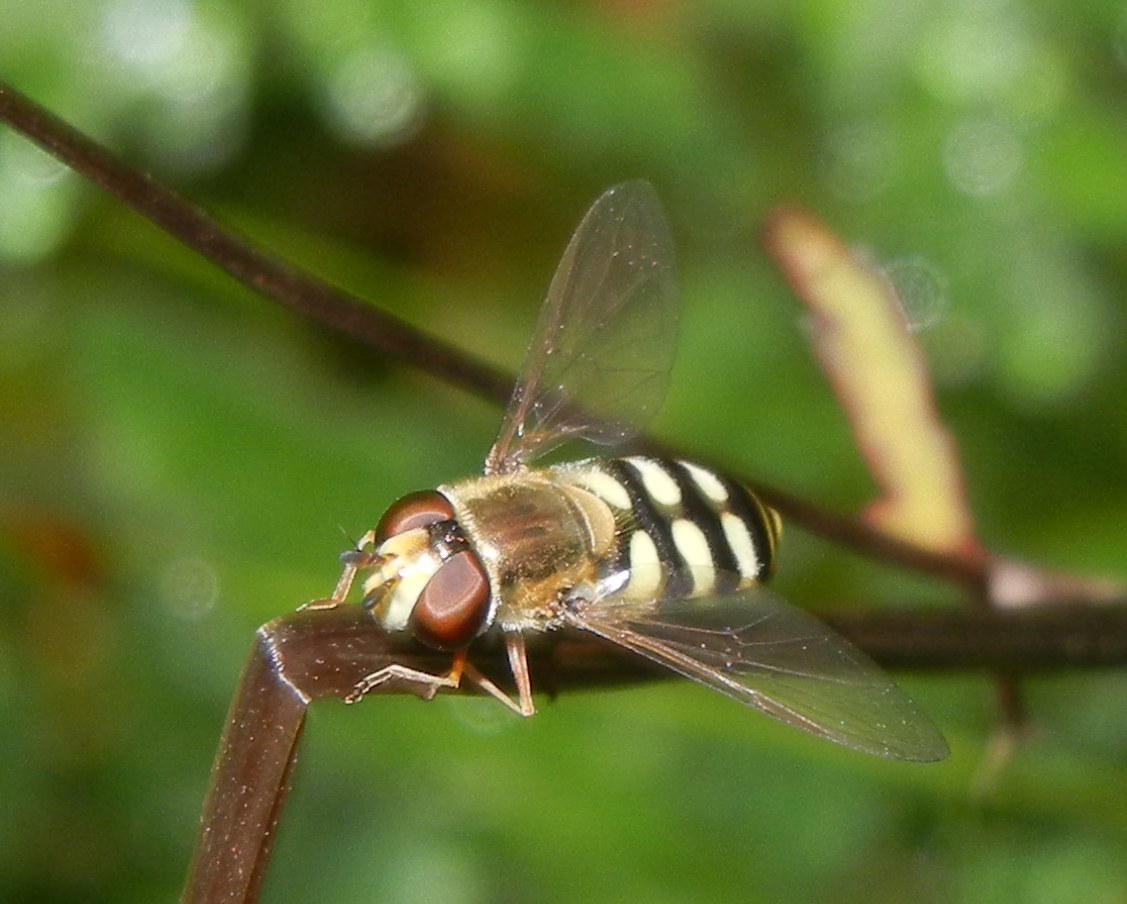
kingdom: Animalia
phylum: Arthropoda
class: Insecta
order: Diptera
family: Syrphidae
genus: Eupeodes
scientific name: Eupeodes corollae
